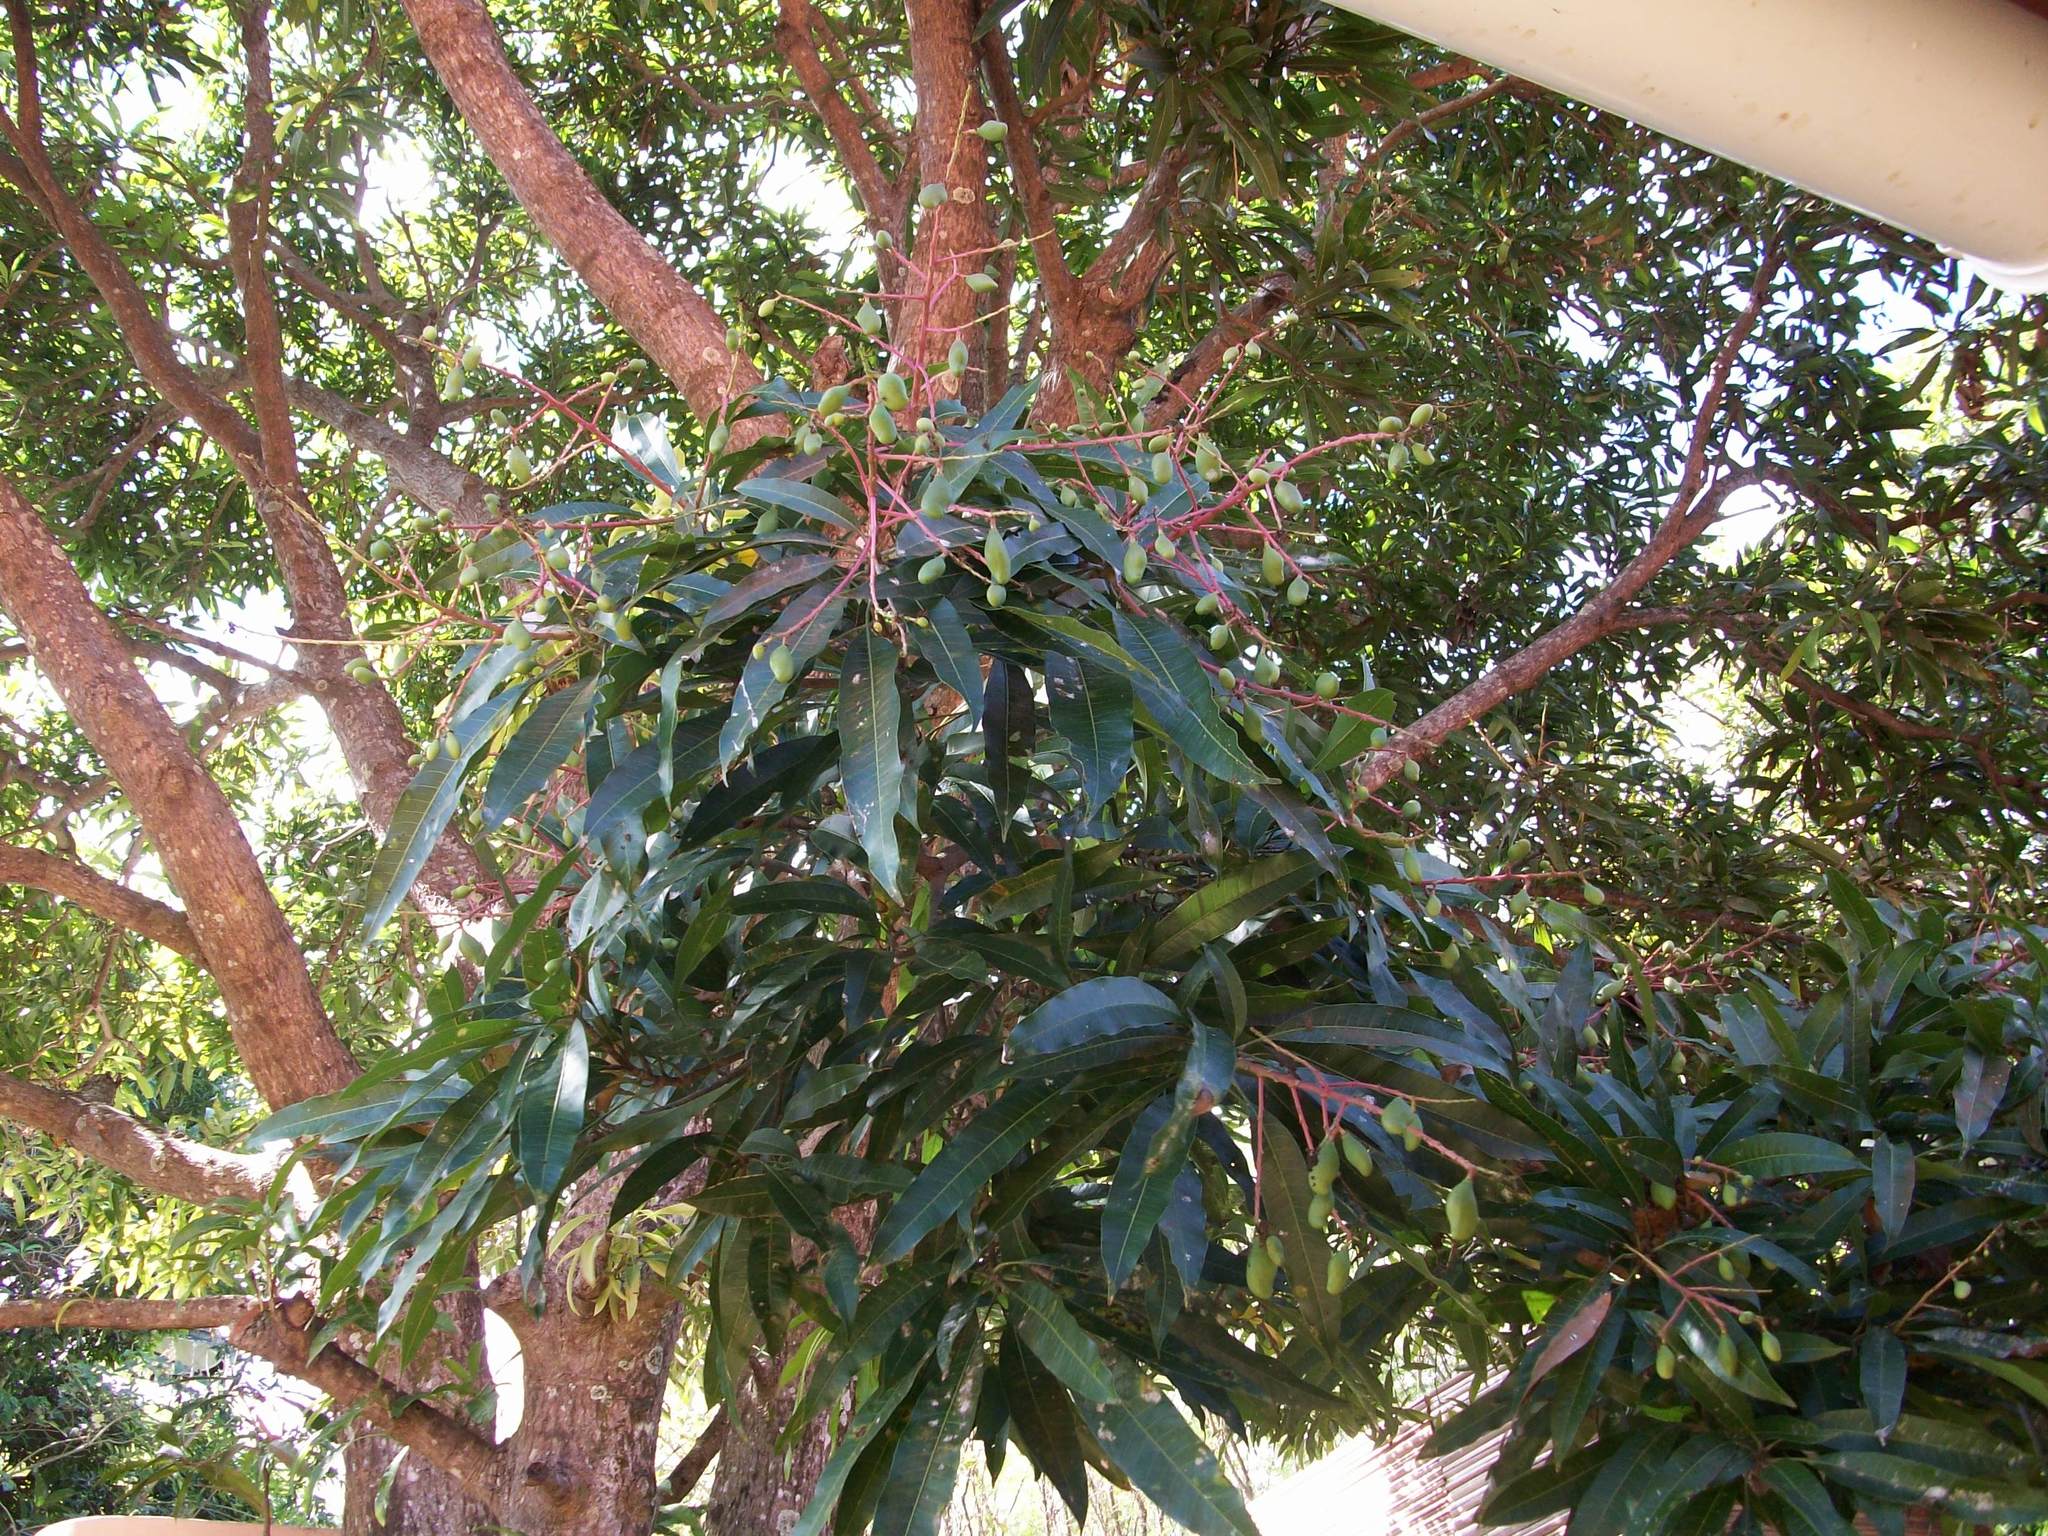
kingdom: Plantae
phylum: Tracheophyta
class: Magnoliopsida
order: Sapindales
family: Anacardiaceae
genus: Mangifera
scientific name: Mangifera indica
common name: Mango
